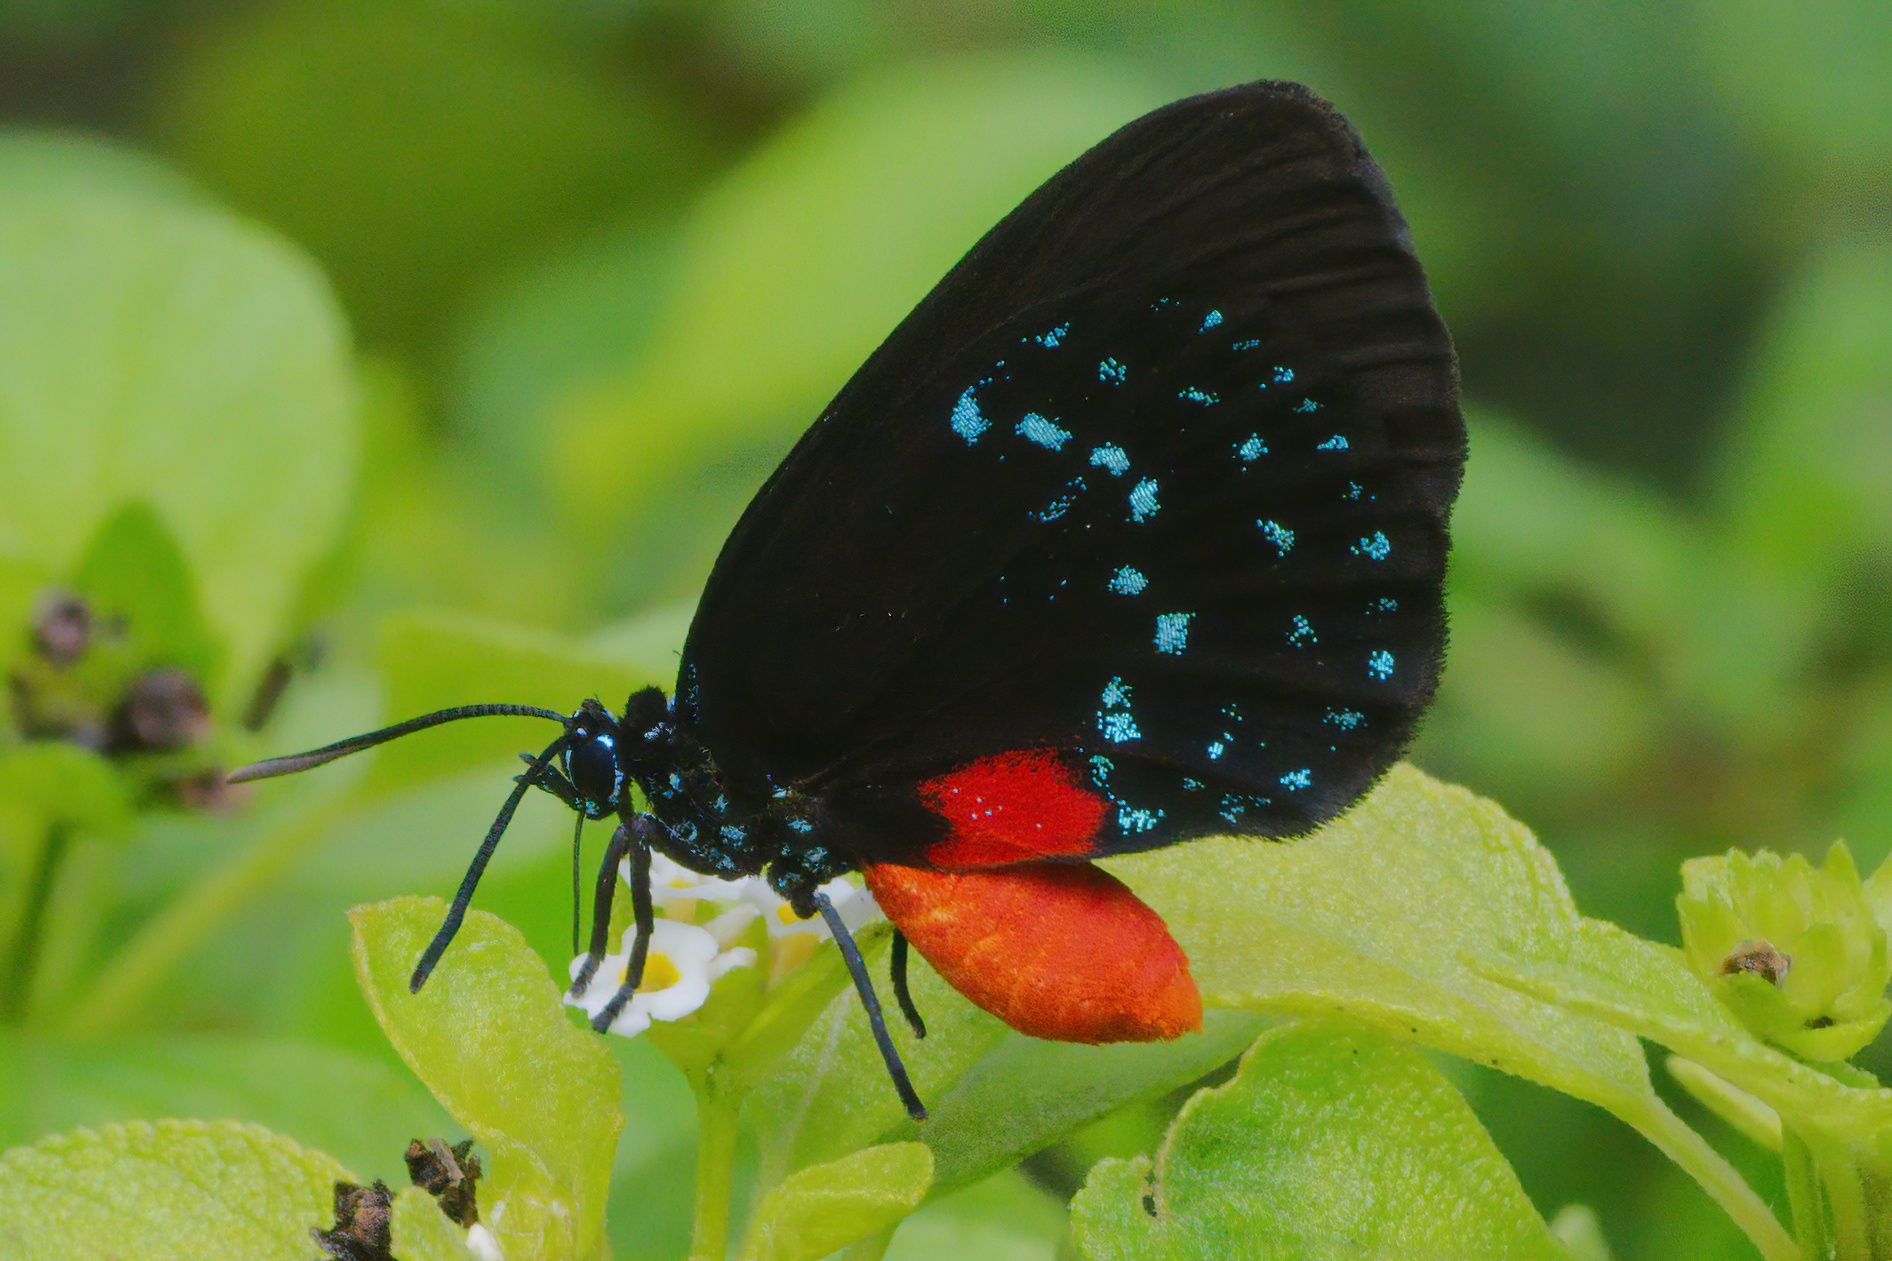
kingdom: Animalia
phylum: Arthropoda
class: Insecta
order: Lepidoptera
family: Lycaenidae
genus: Eumaeus
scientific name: Eumaeus atala
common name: Atala
